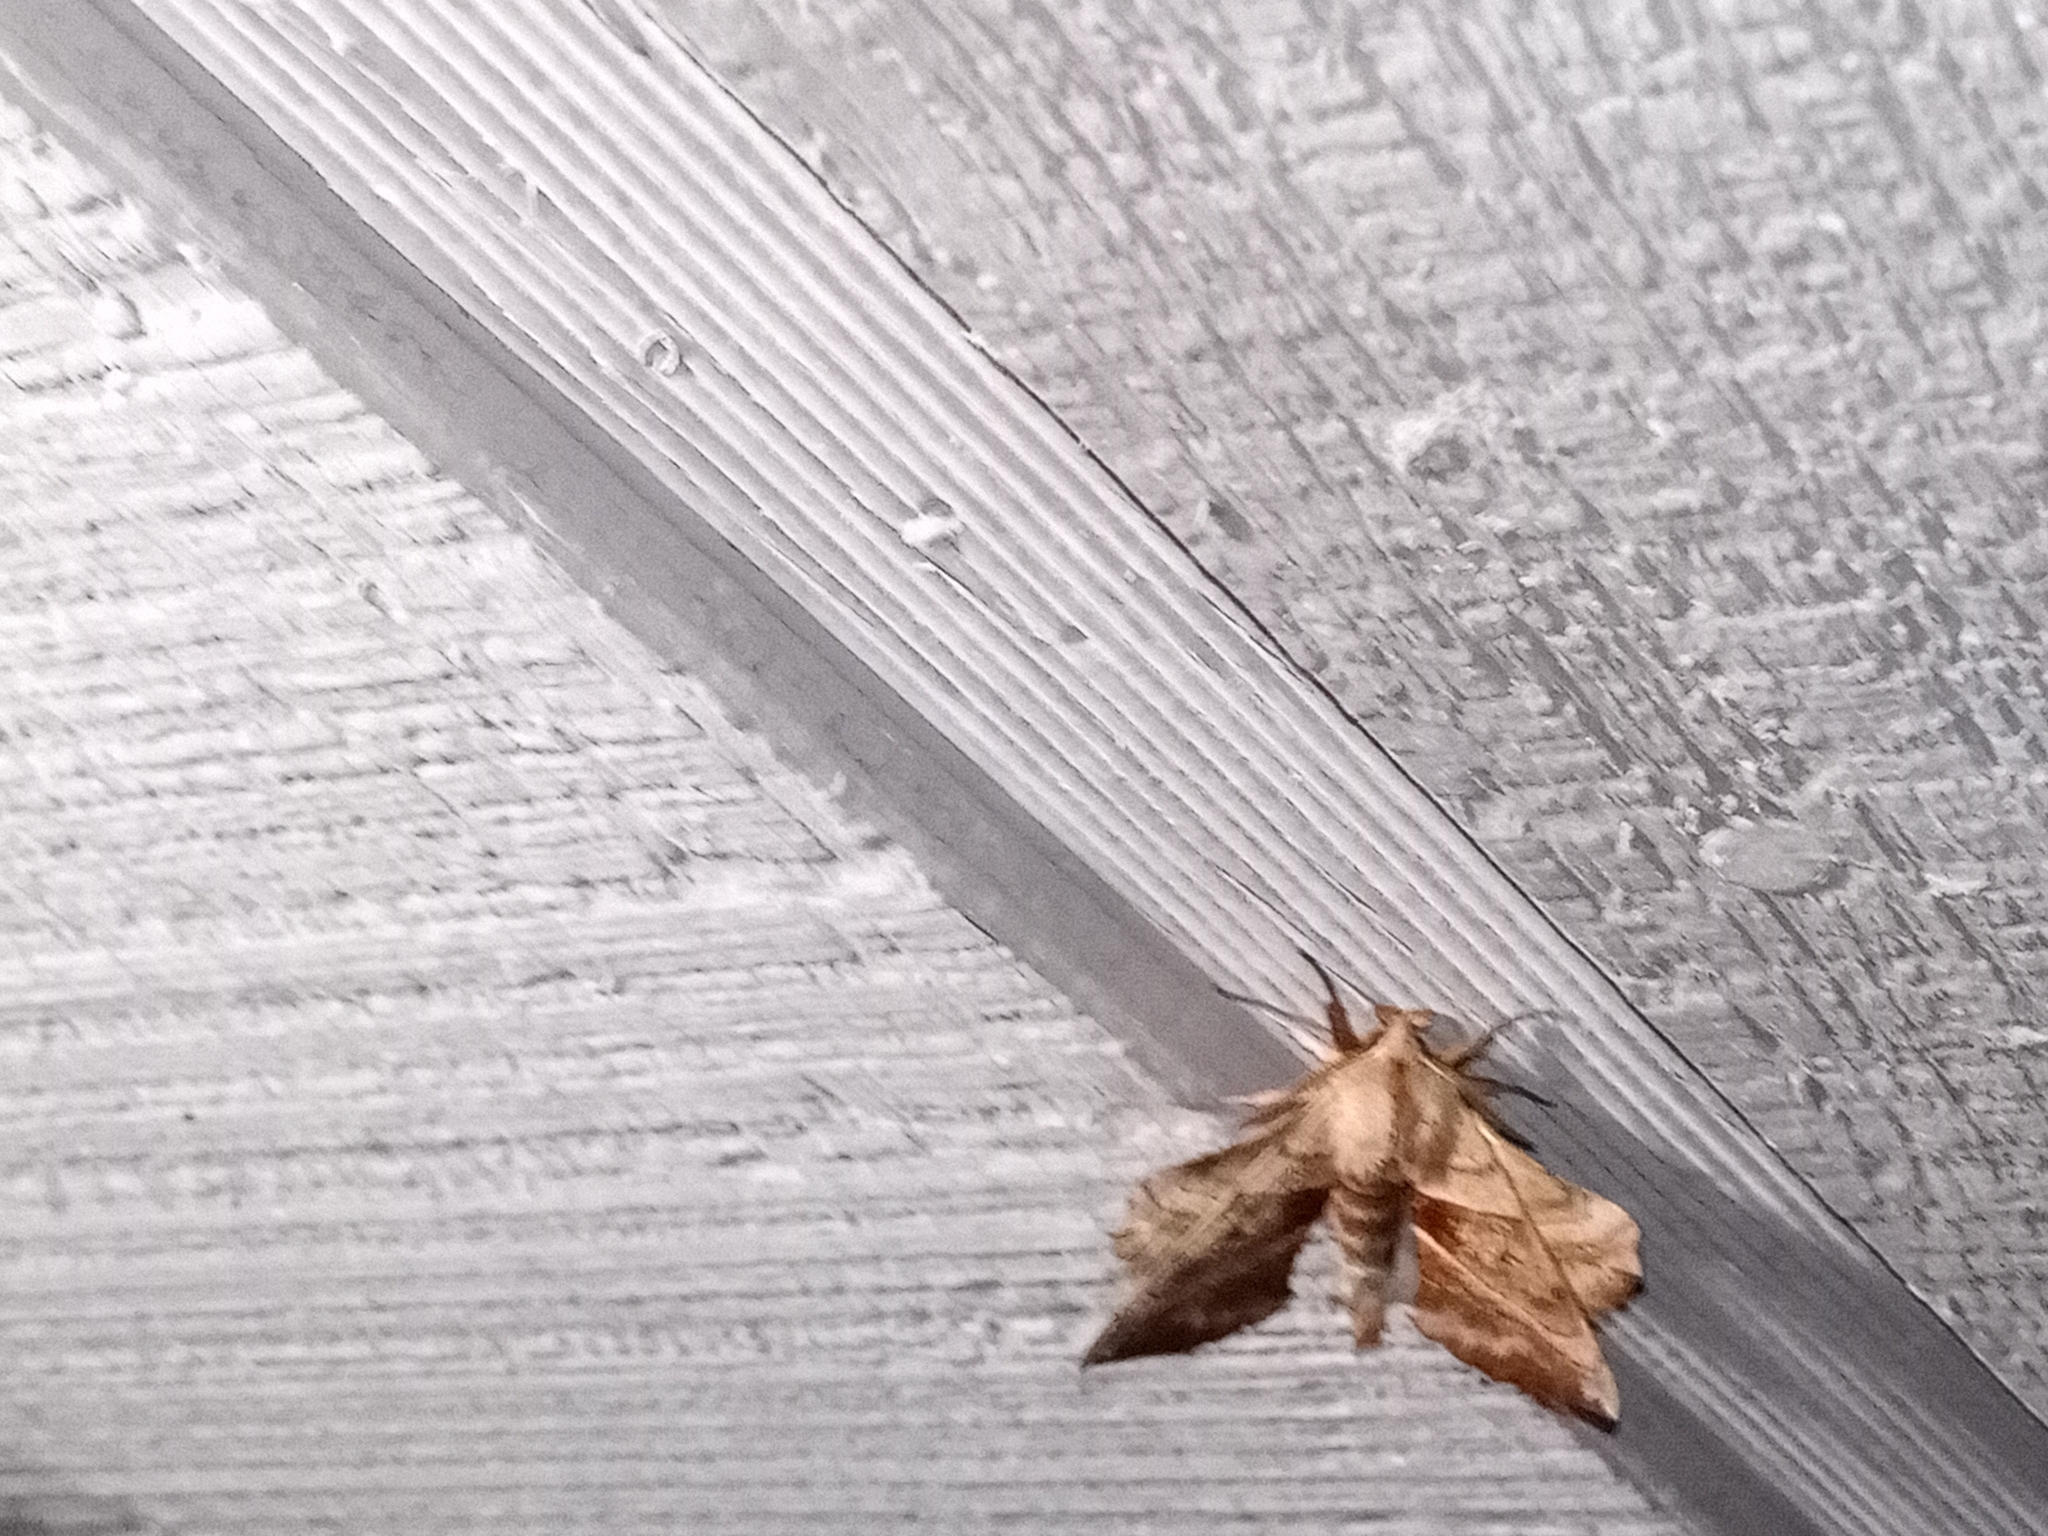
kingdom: Animalia
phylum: Arthropoda
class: Insecta
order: Lepidoptera
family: Sphingidae
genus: Amorpha
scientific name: Amorpha juglandis
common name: Walnut sphinx
